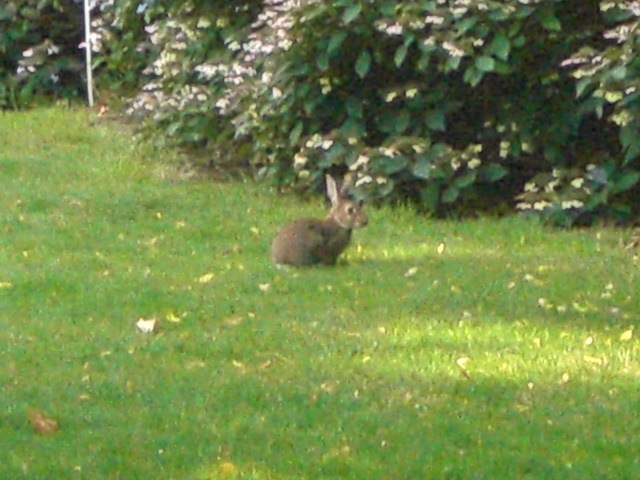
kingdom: Animalia
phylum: Chordata
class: Mammalia
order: Lagomorpha
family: Leporidae
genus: Oryctolagus
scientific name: Oryctolagus cuniculus
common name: European rabbit
